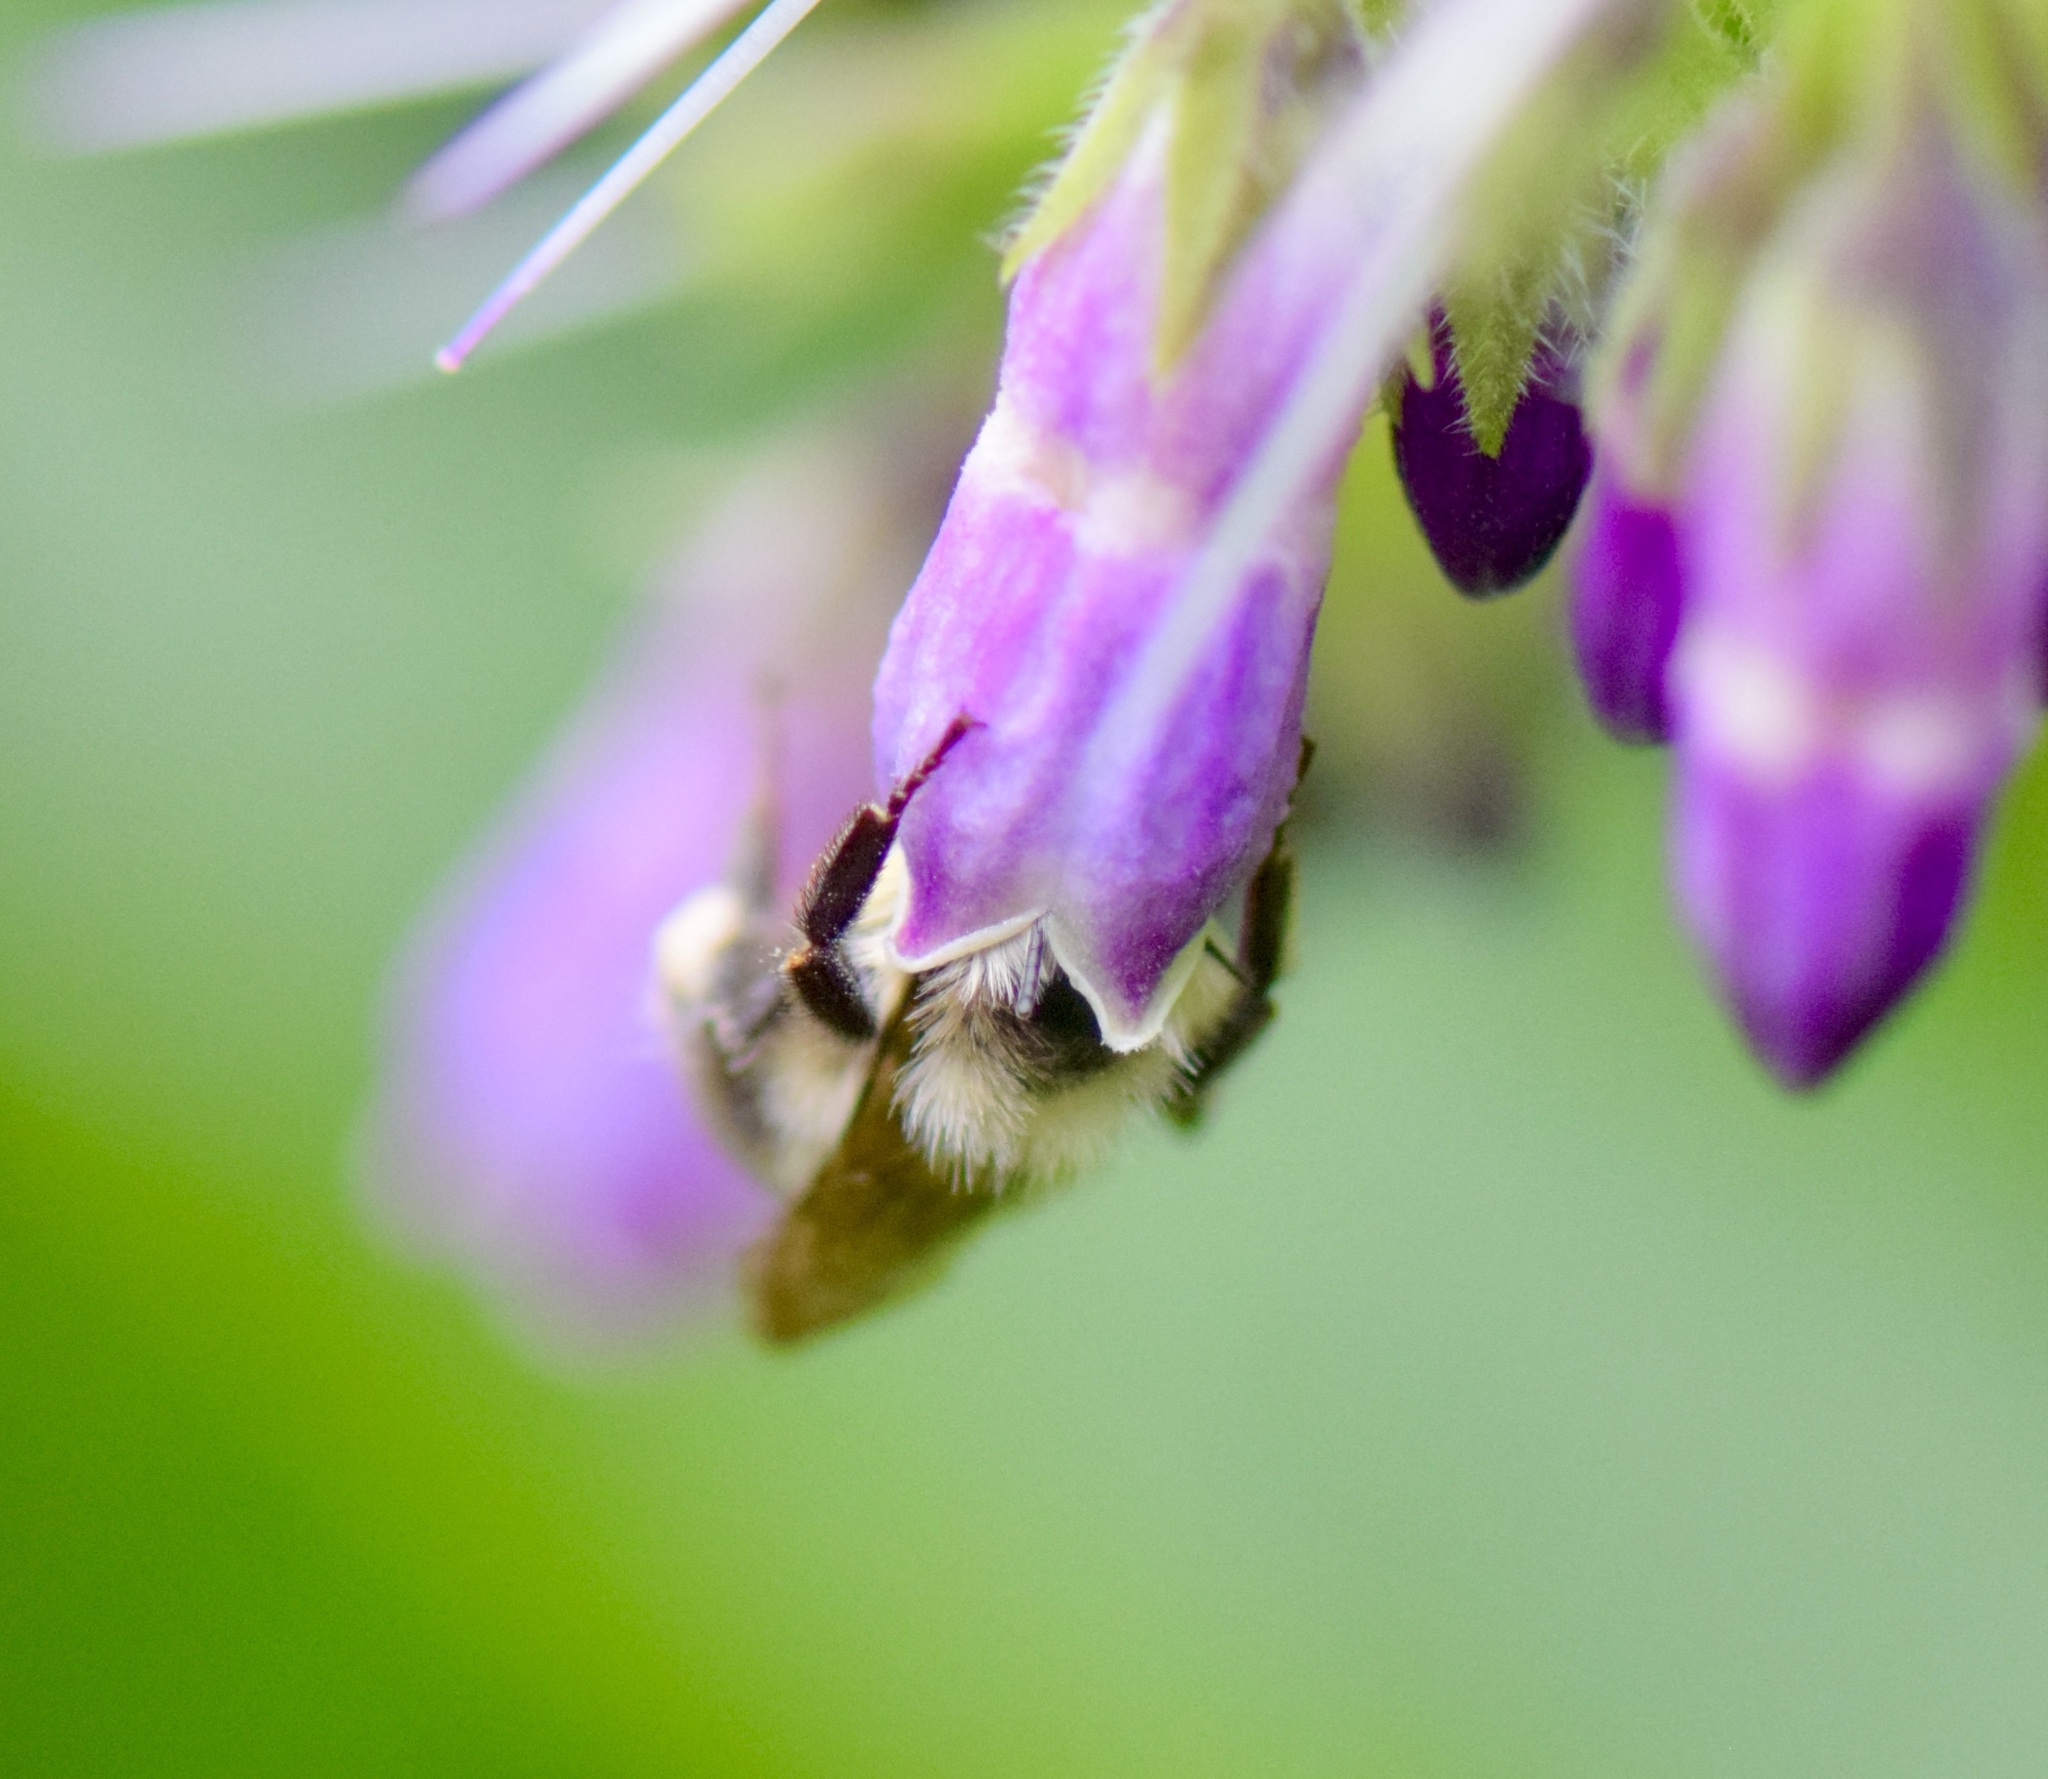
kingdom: Animalia
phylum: Arthropoda
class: Insecta
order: Hymenoptera
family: Apidae
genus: Bombus
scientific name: Bombus bimaculatus
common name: Two-spotted bumble bee
